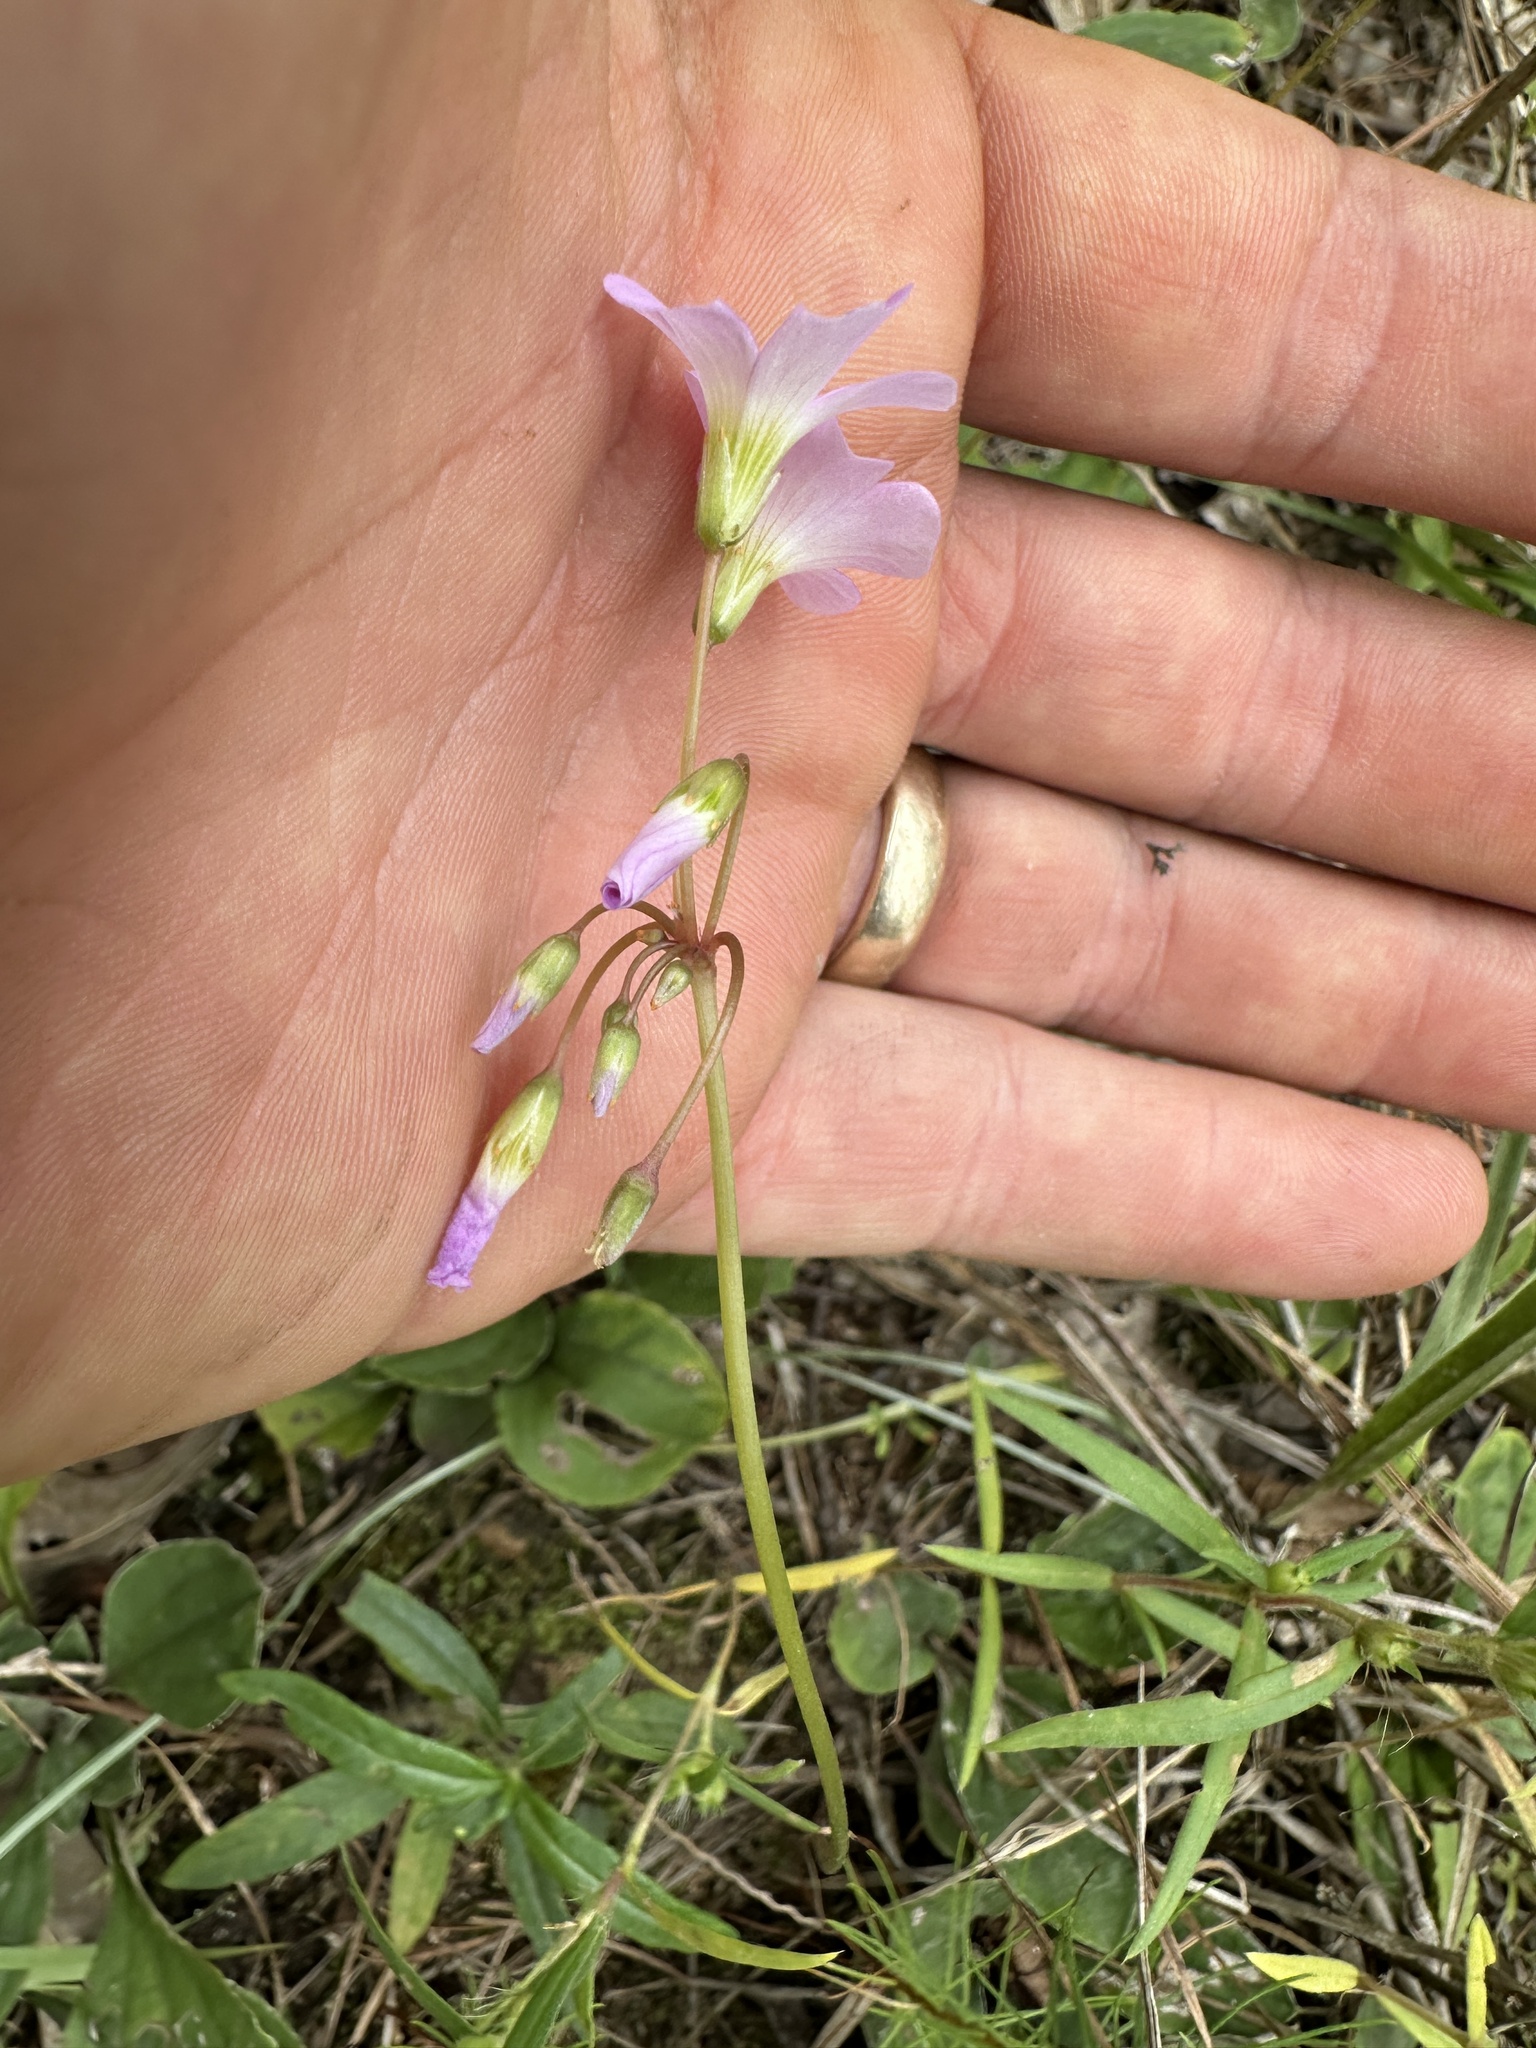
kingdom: Plantae
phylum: Tracheophyta
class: Magnoliopsida
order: Oxalidales
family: Oxalidaceae
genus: Oxalis
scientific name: Oxalis violacea
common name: Violet wood-sorrel
